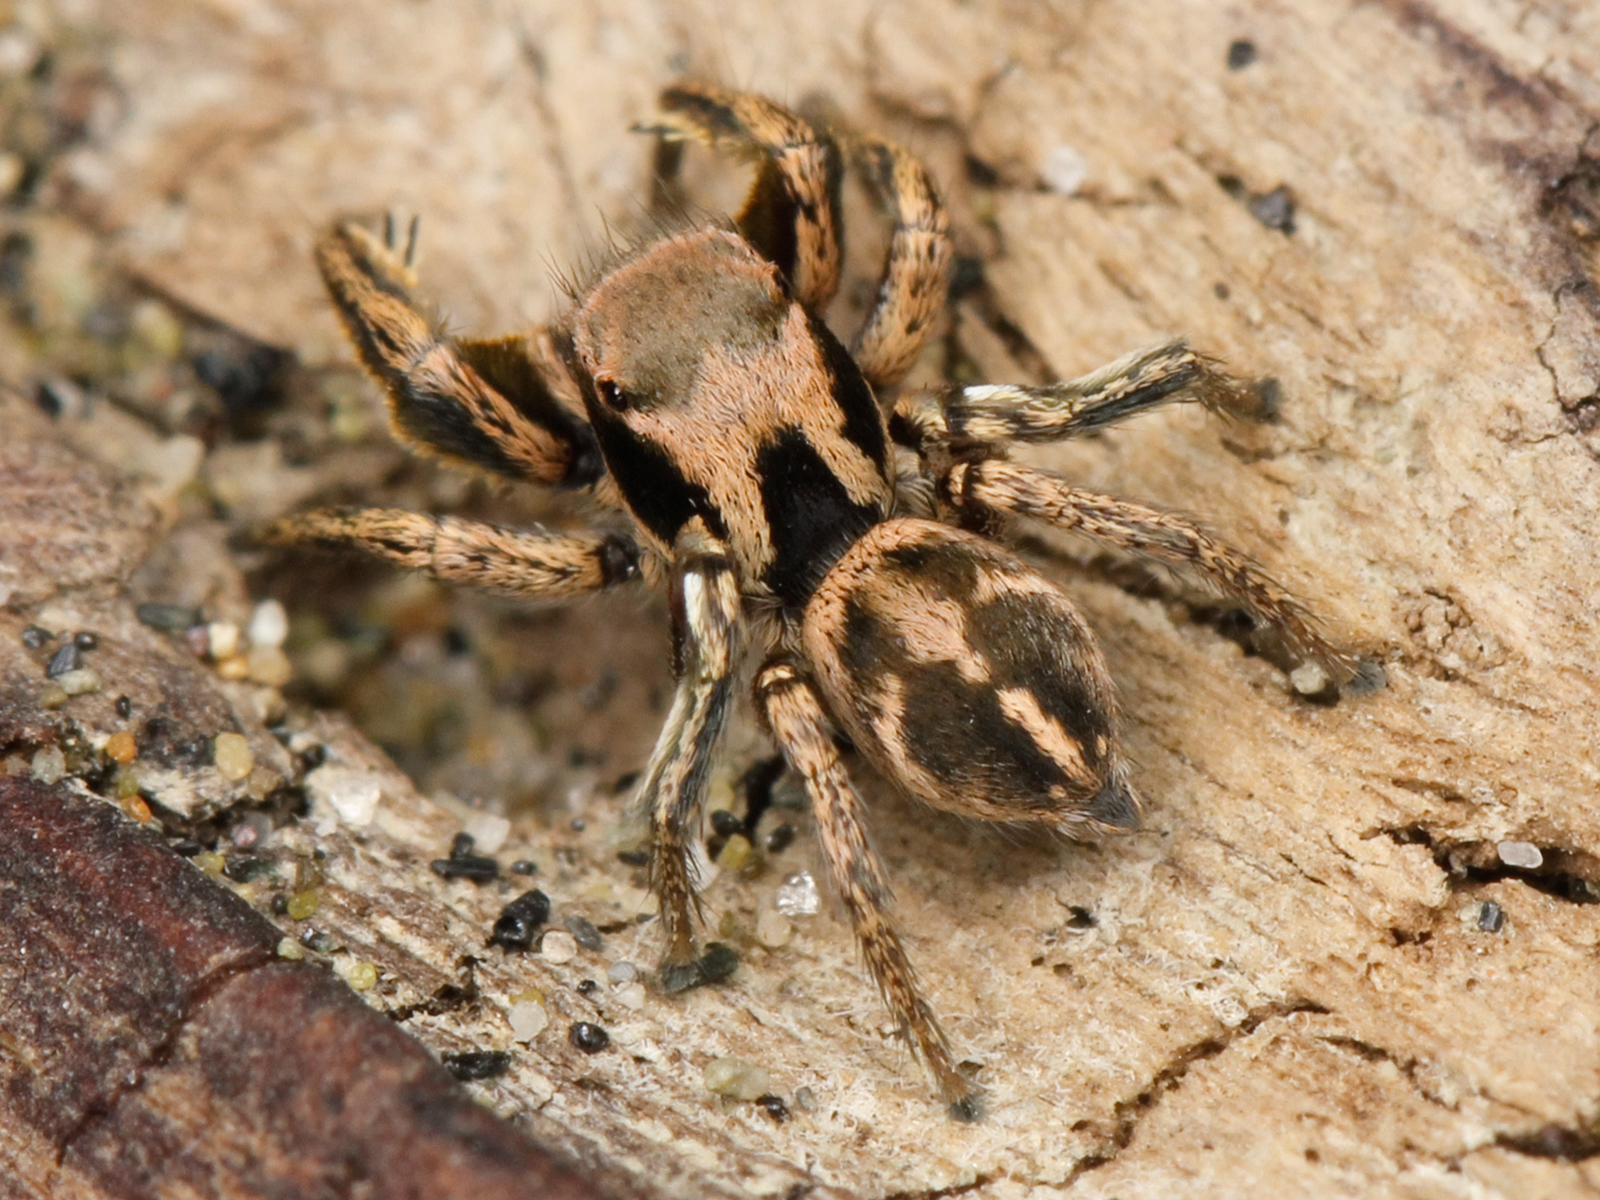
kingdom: Animalia
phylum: Arthropoda
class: Arachnida
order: Araneae
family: Salticidae
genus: Habronattus
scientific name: Habronattus klauseri
